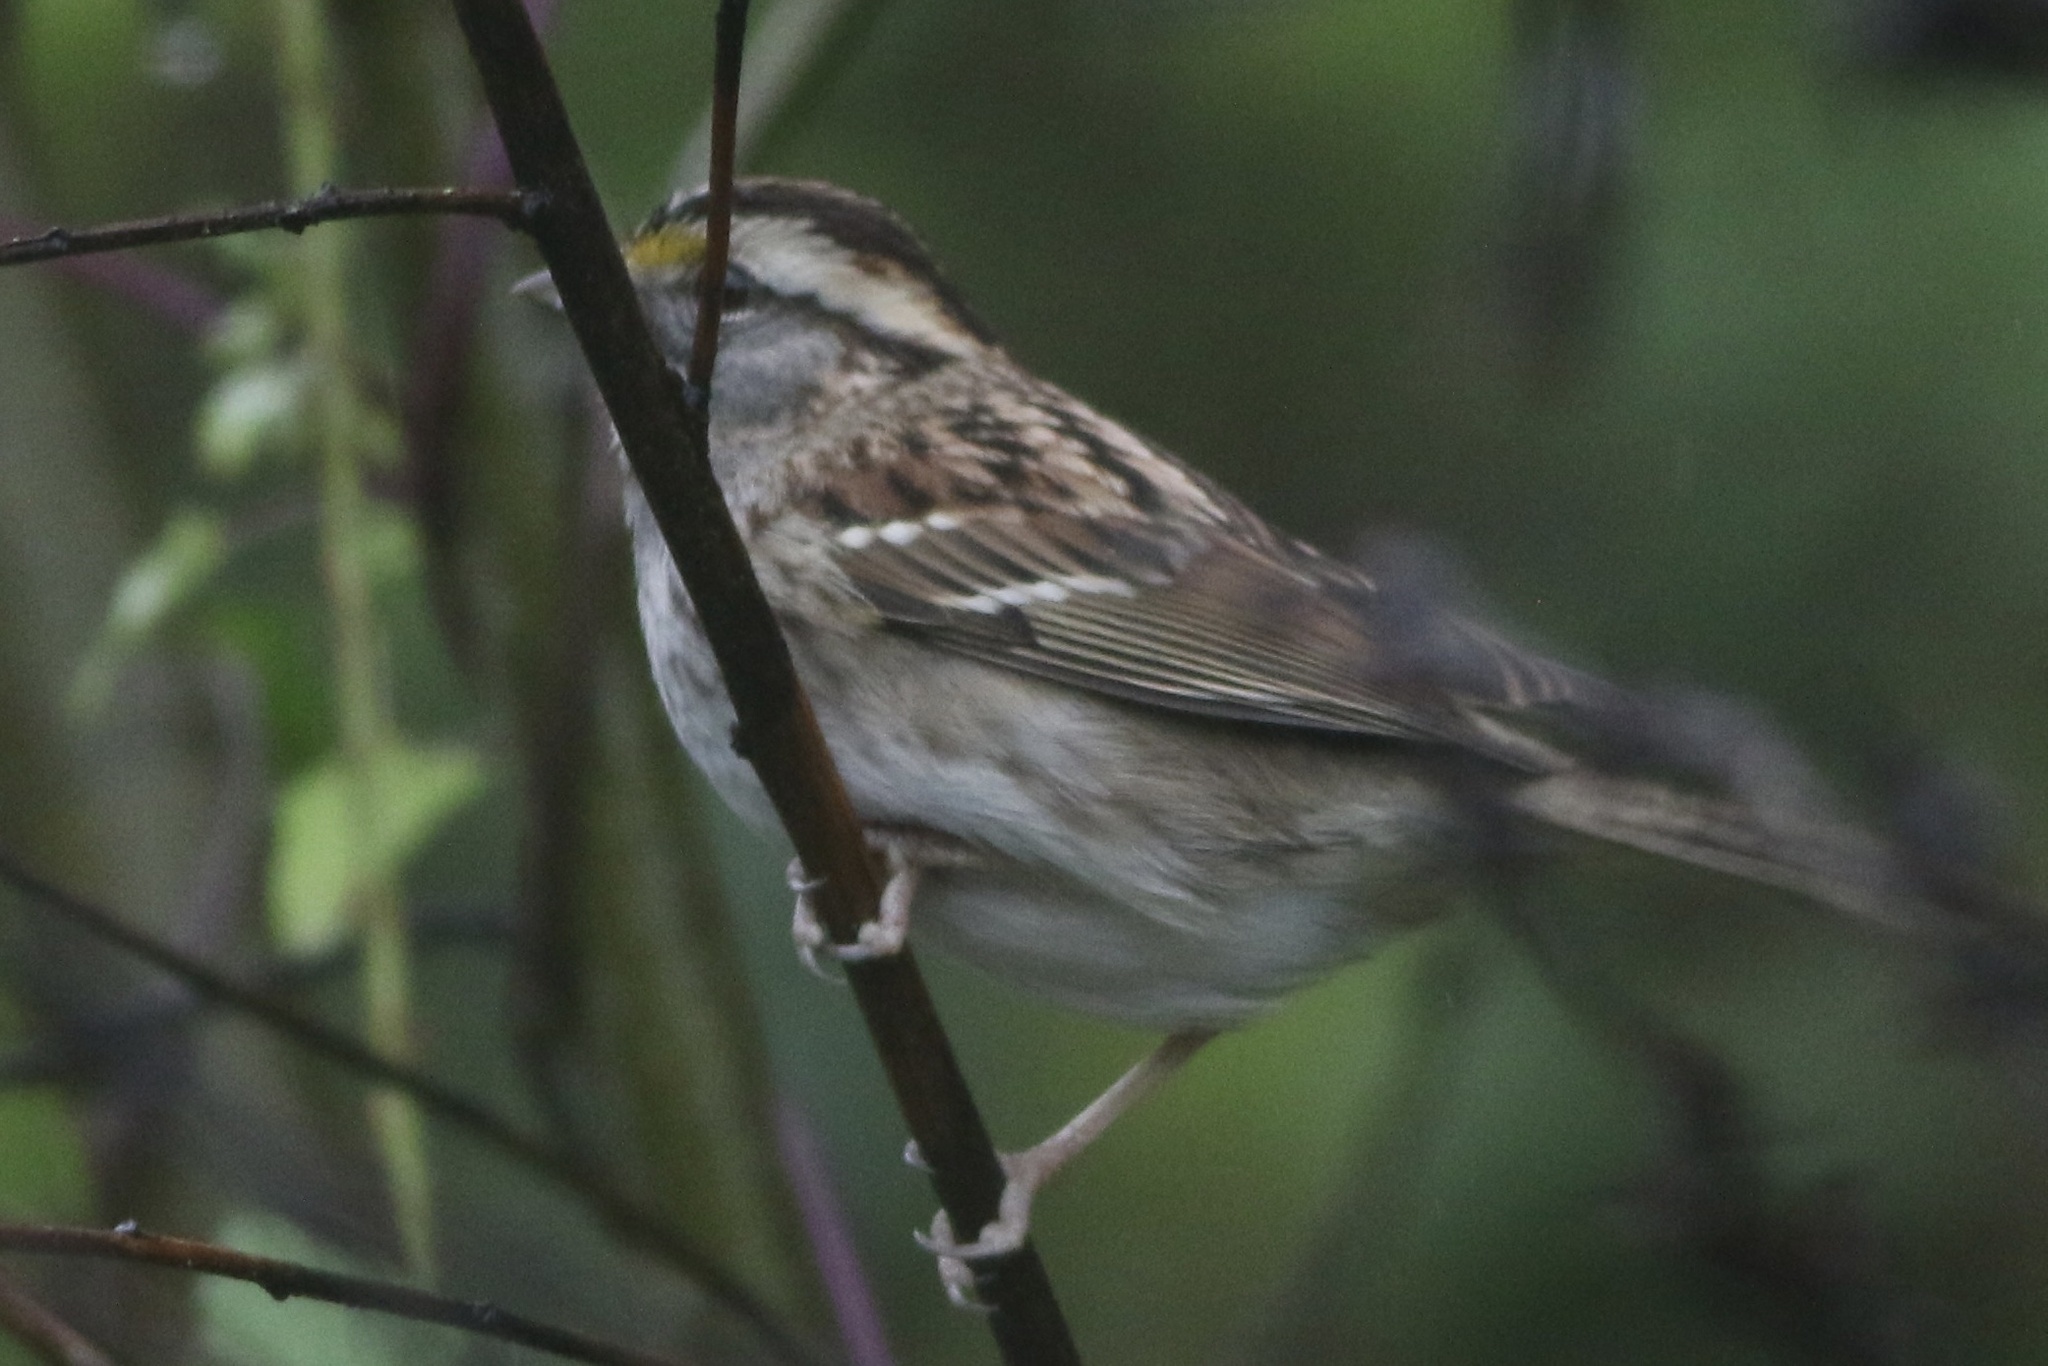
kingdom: Animalia
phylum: Chordata
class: Aves
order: Passeriformes
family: Passerellidae
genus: Zonotrichia
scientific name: Zonotrichia albicollis
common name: White-throated sparrow
